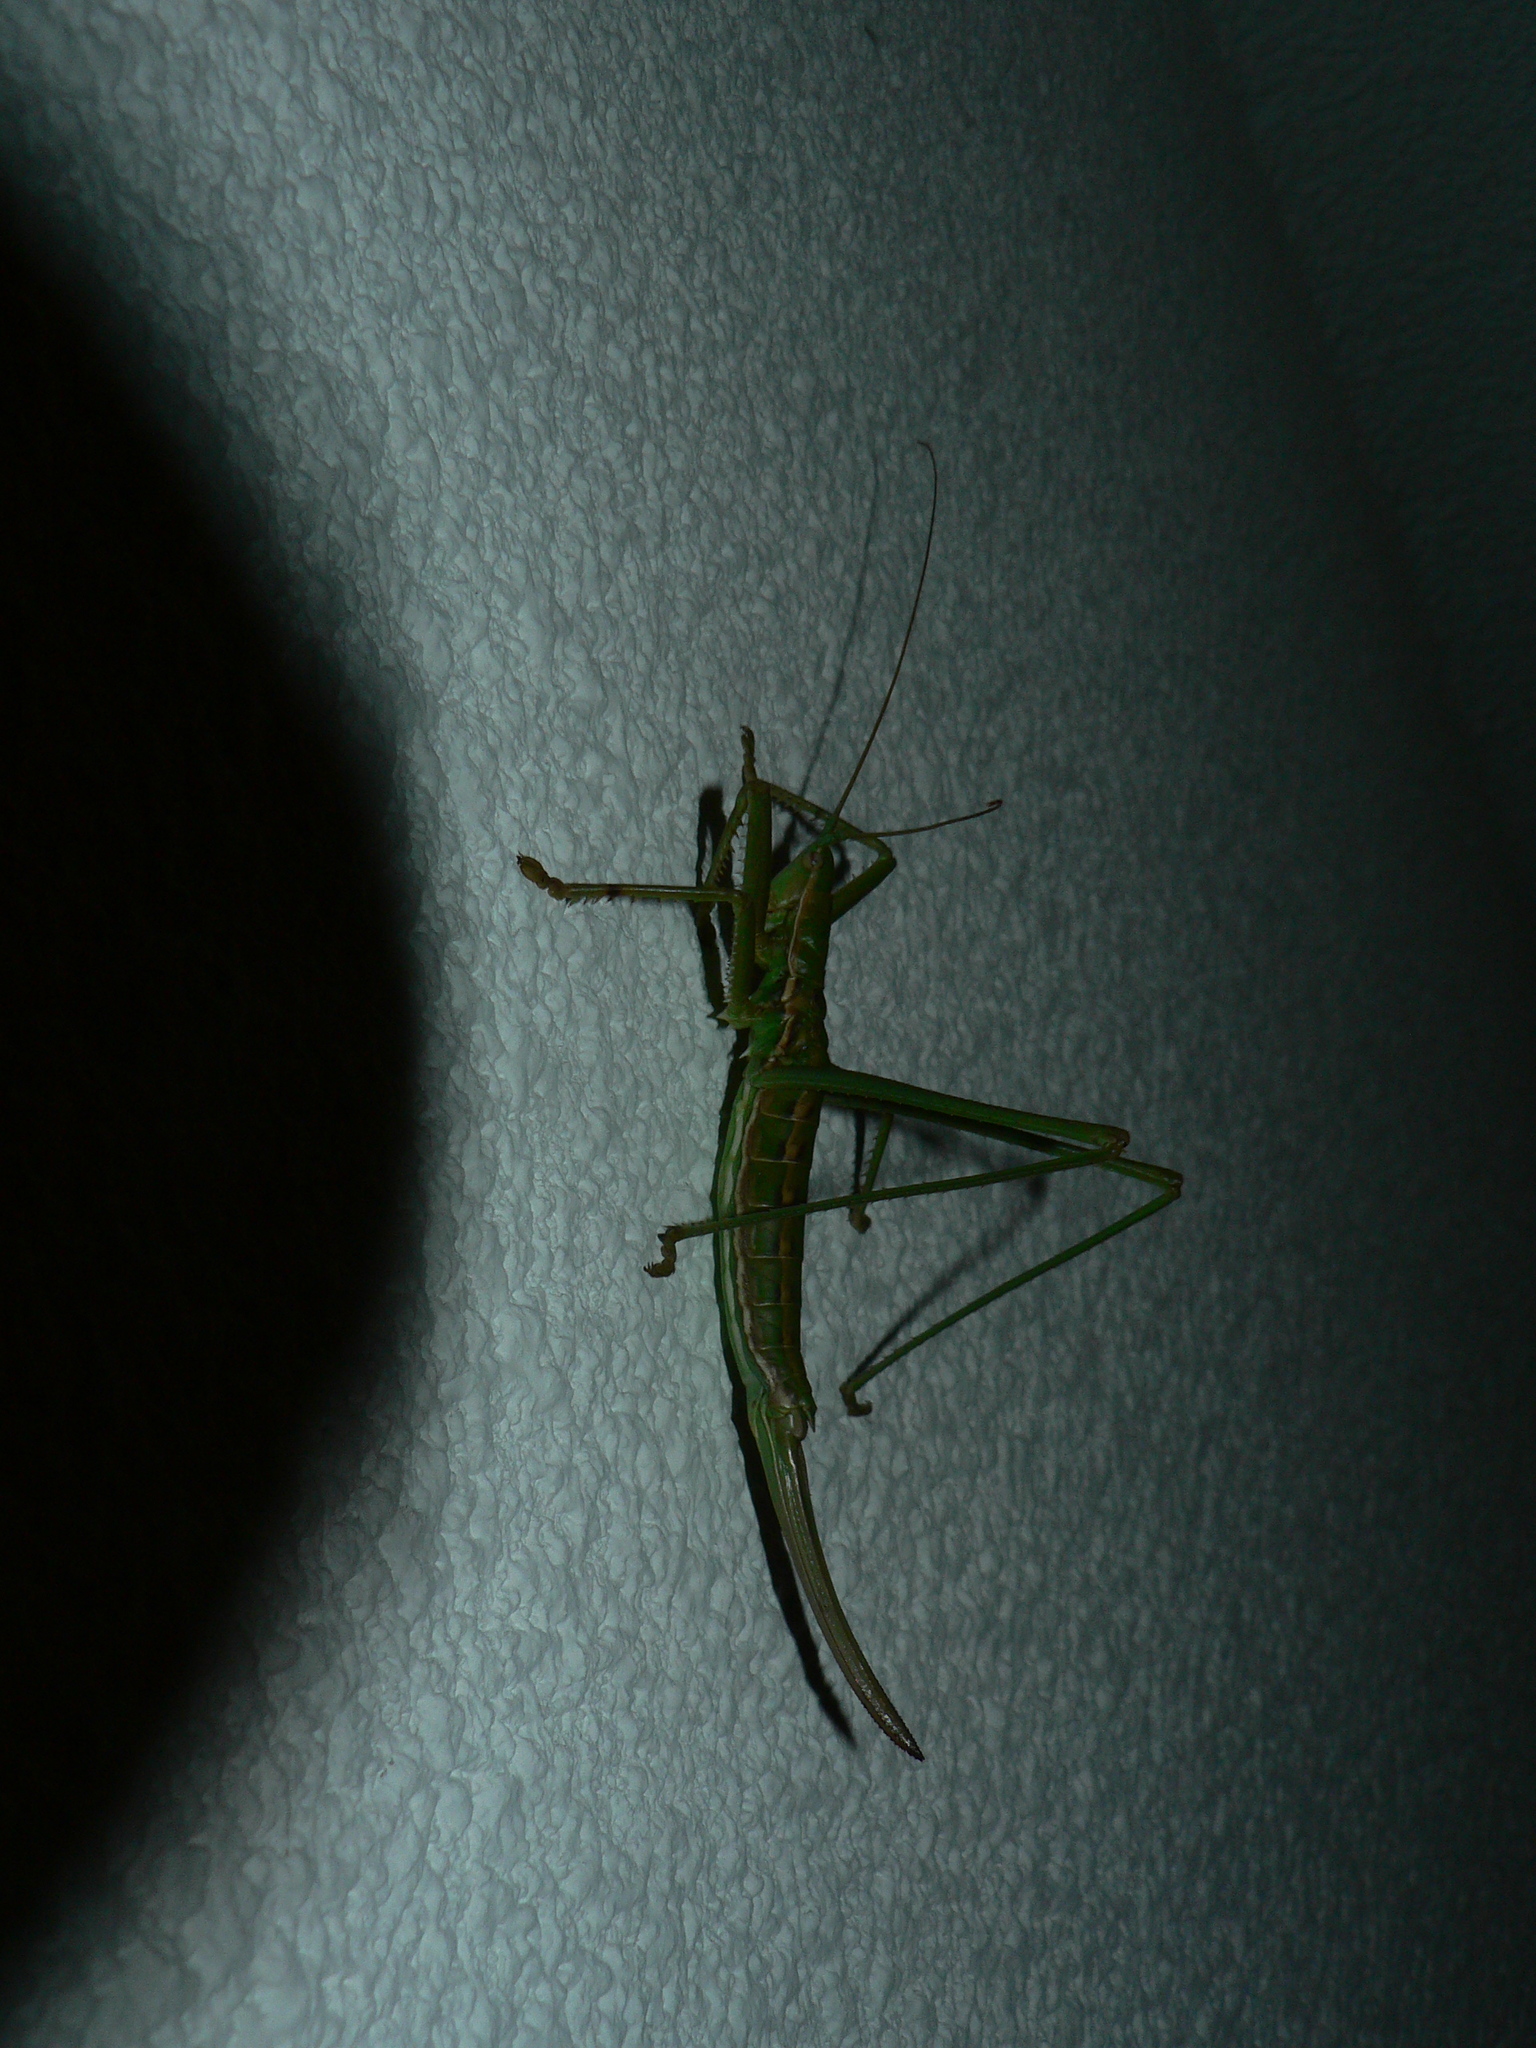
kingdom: Animalia
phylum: Arthropoda
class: Insecta
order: Orthoptera
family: Tettigoniidae
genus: Saga
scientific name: Saga pedo
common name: Common predatory bush-cricket
